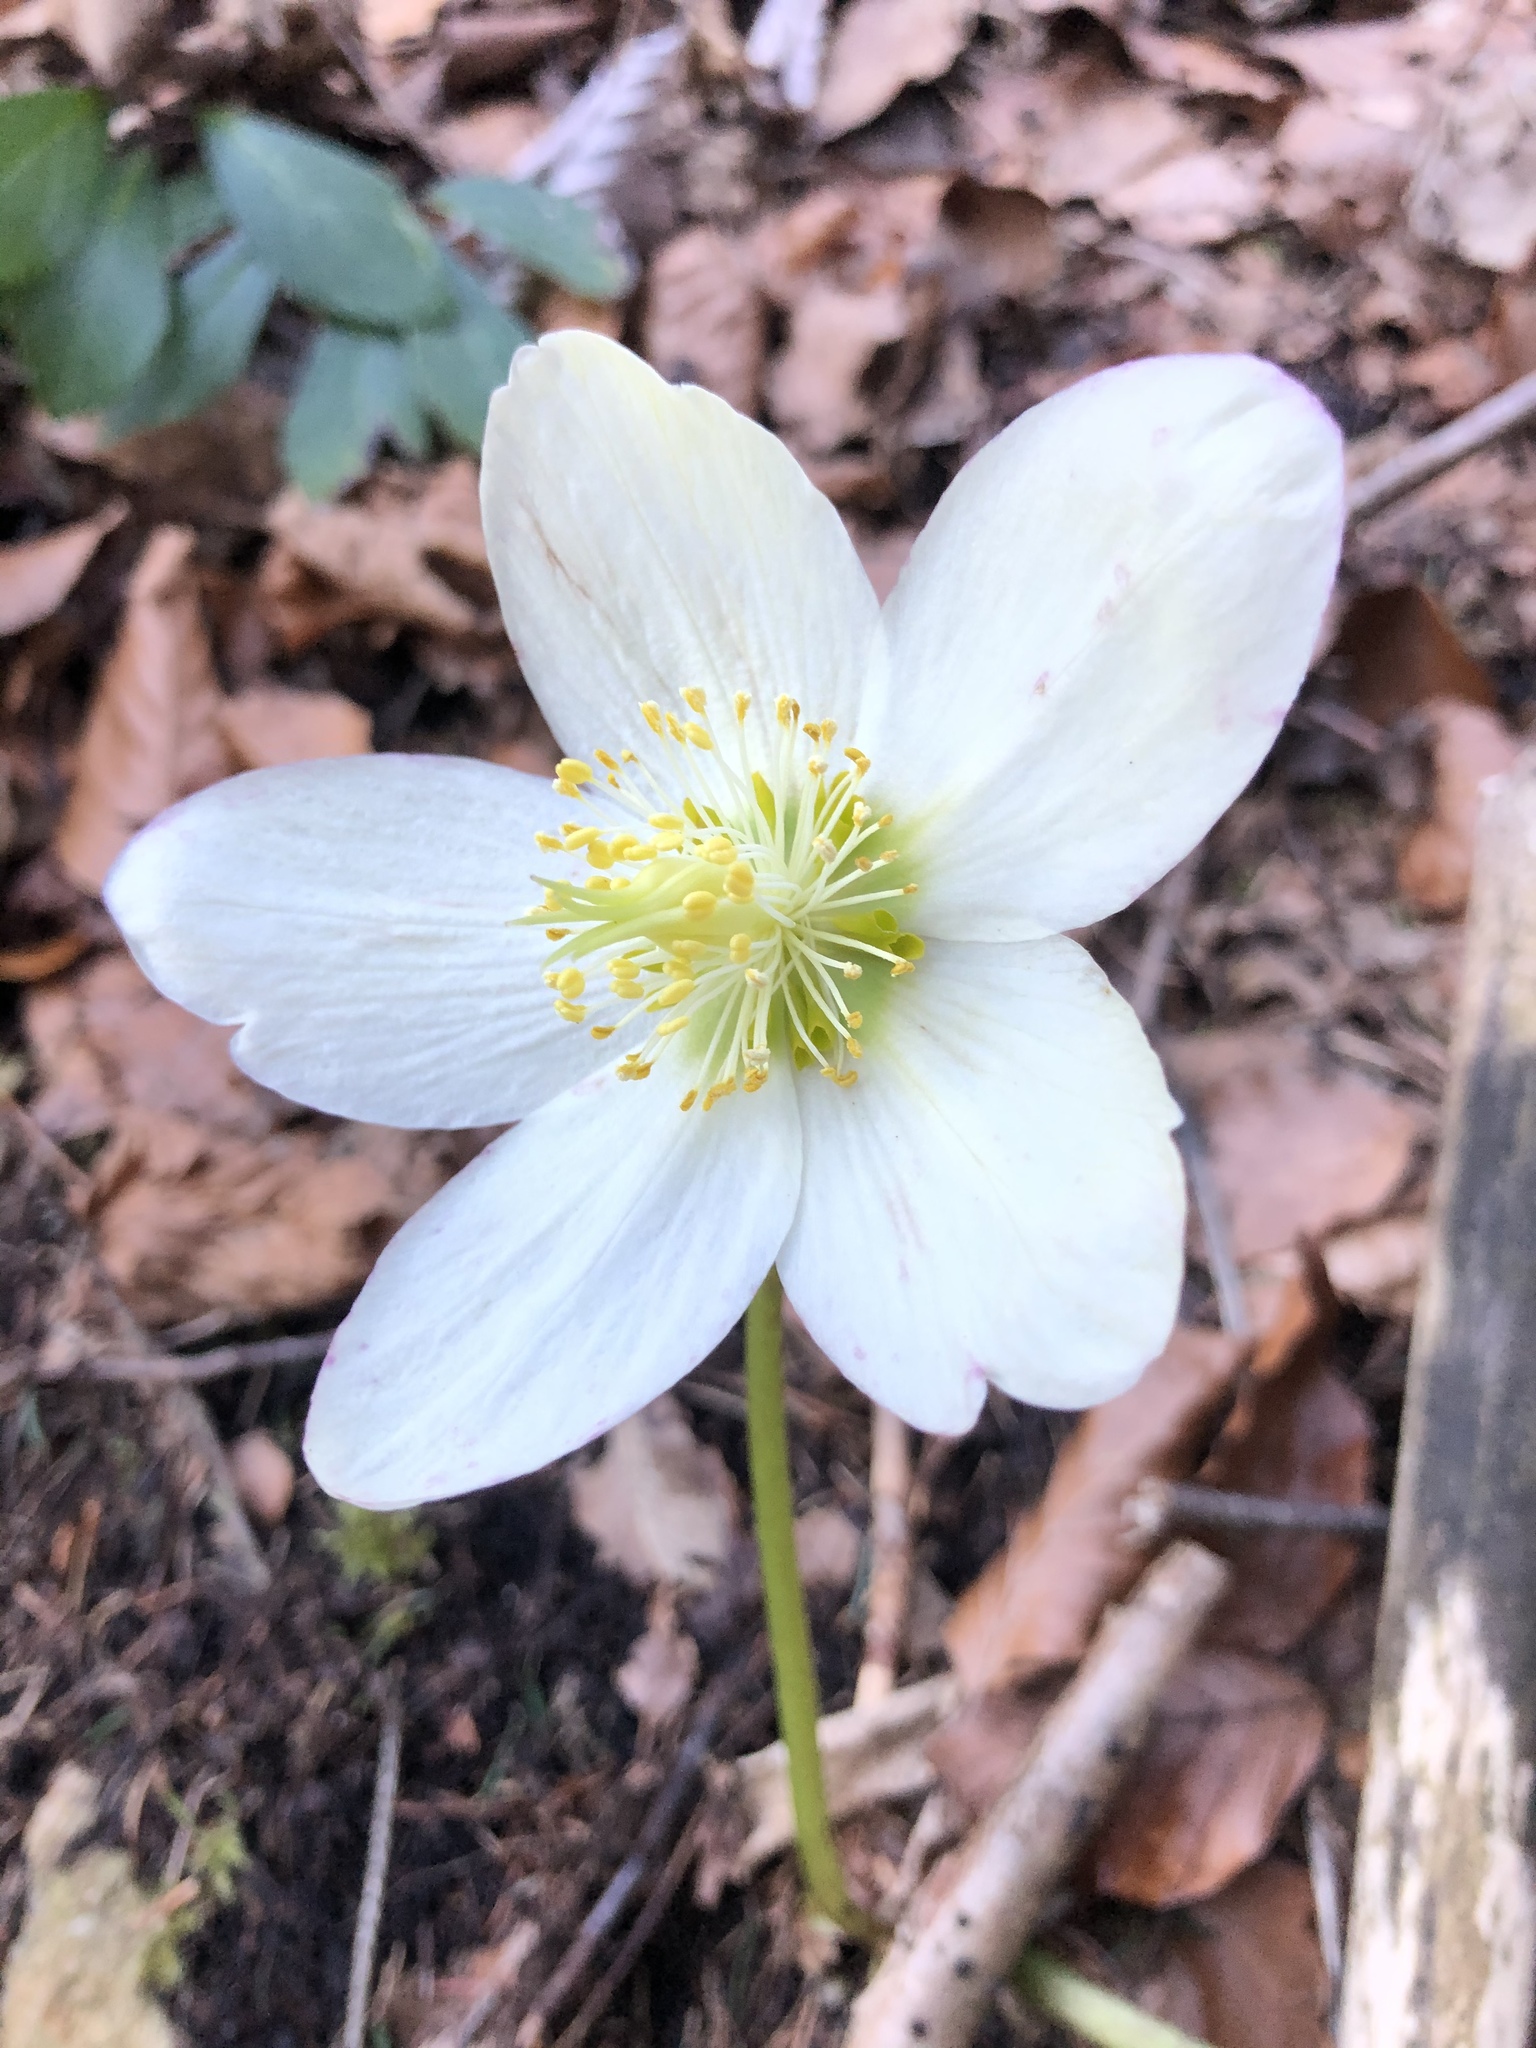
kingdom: Plantae
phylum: Tracheophyta
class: Magnoliopsida
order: Ranunculales
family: Ranunculaceae
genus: Helleborus
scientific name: Helleborus niger
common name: Black hellebore
